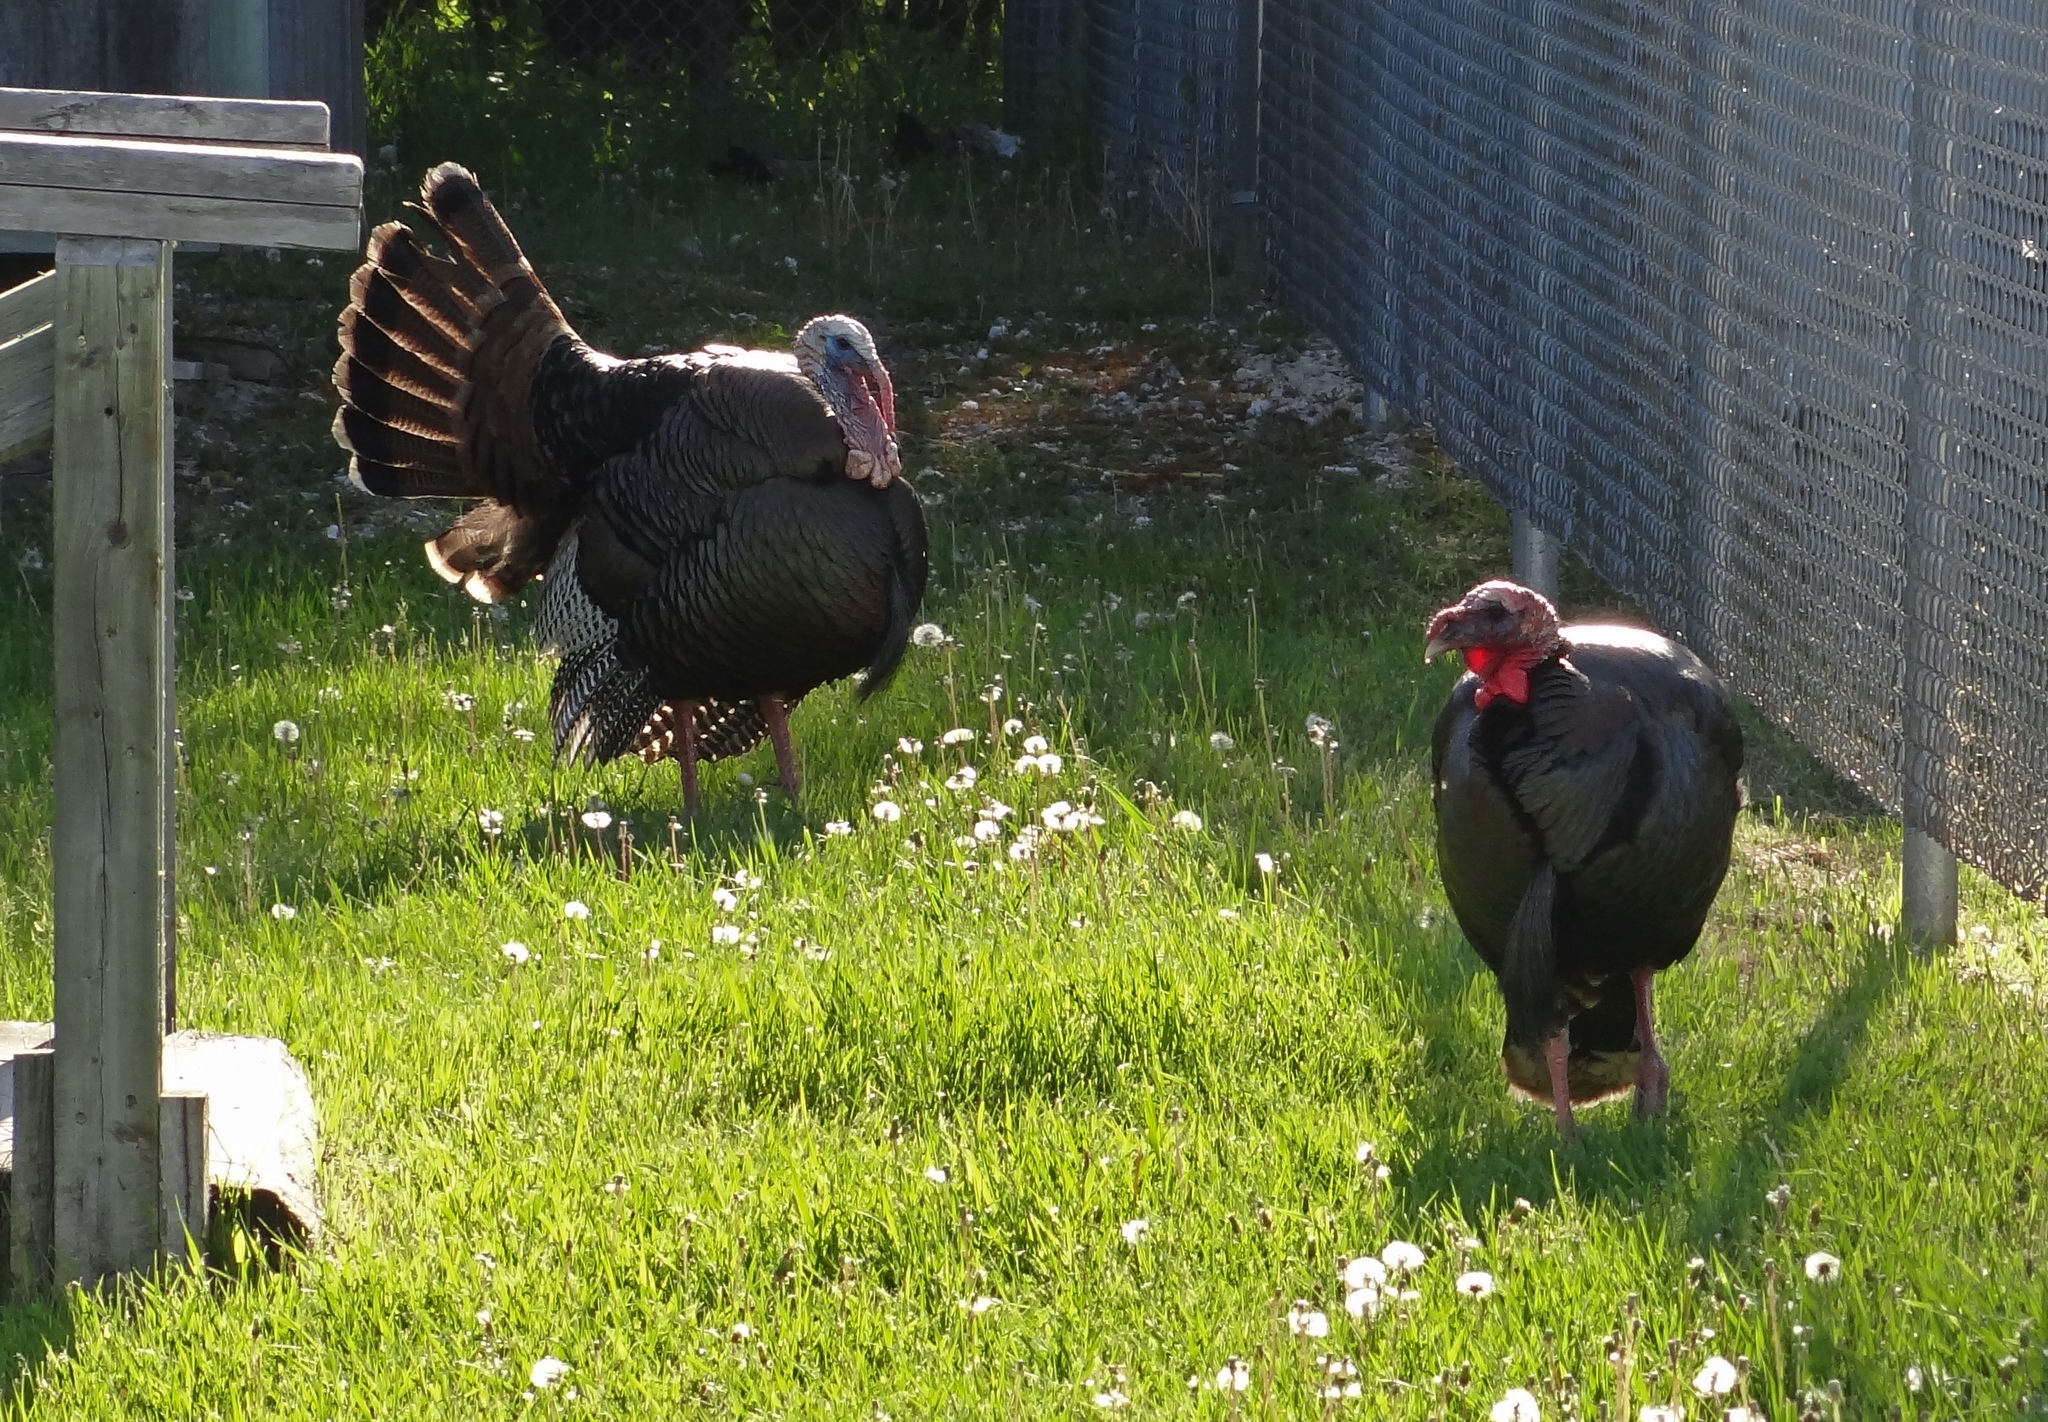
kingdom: Animalia
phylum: Chordata
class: Aves
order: Galliformes
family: Phasianidae
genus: Meleagris
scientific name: Meleagris gallopavo
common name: Wild turkey
